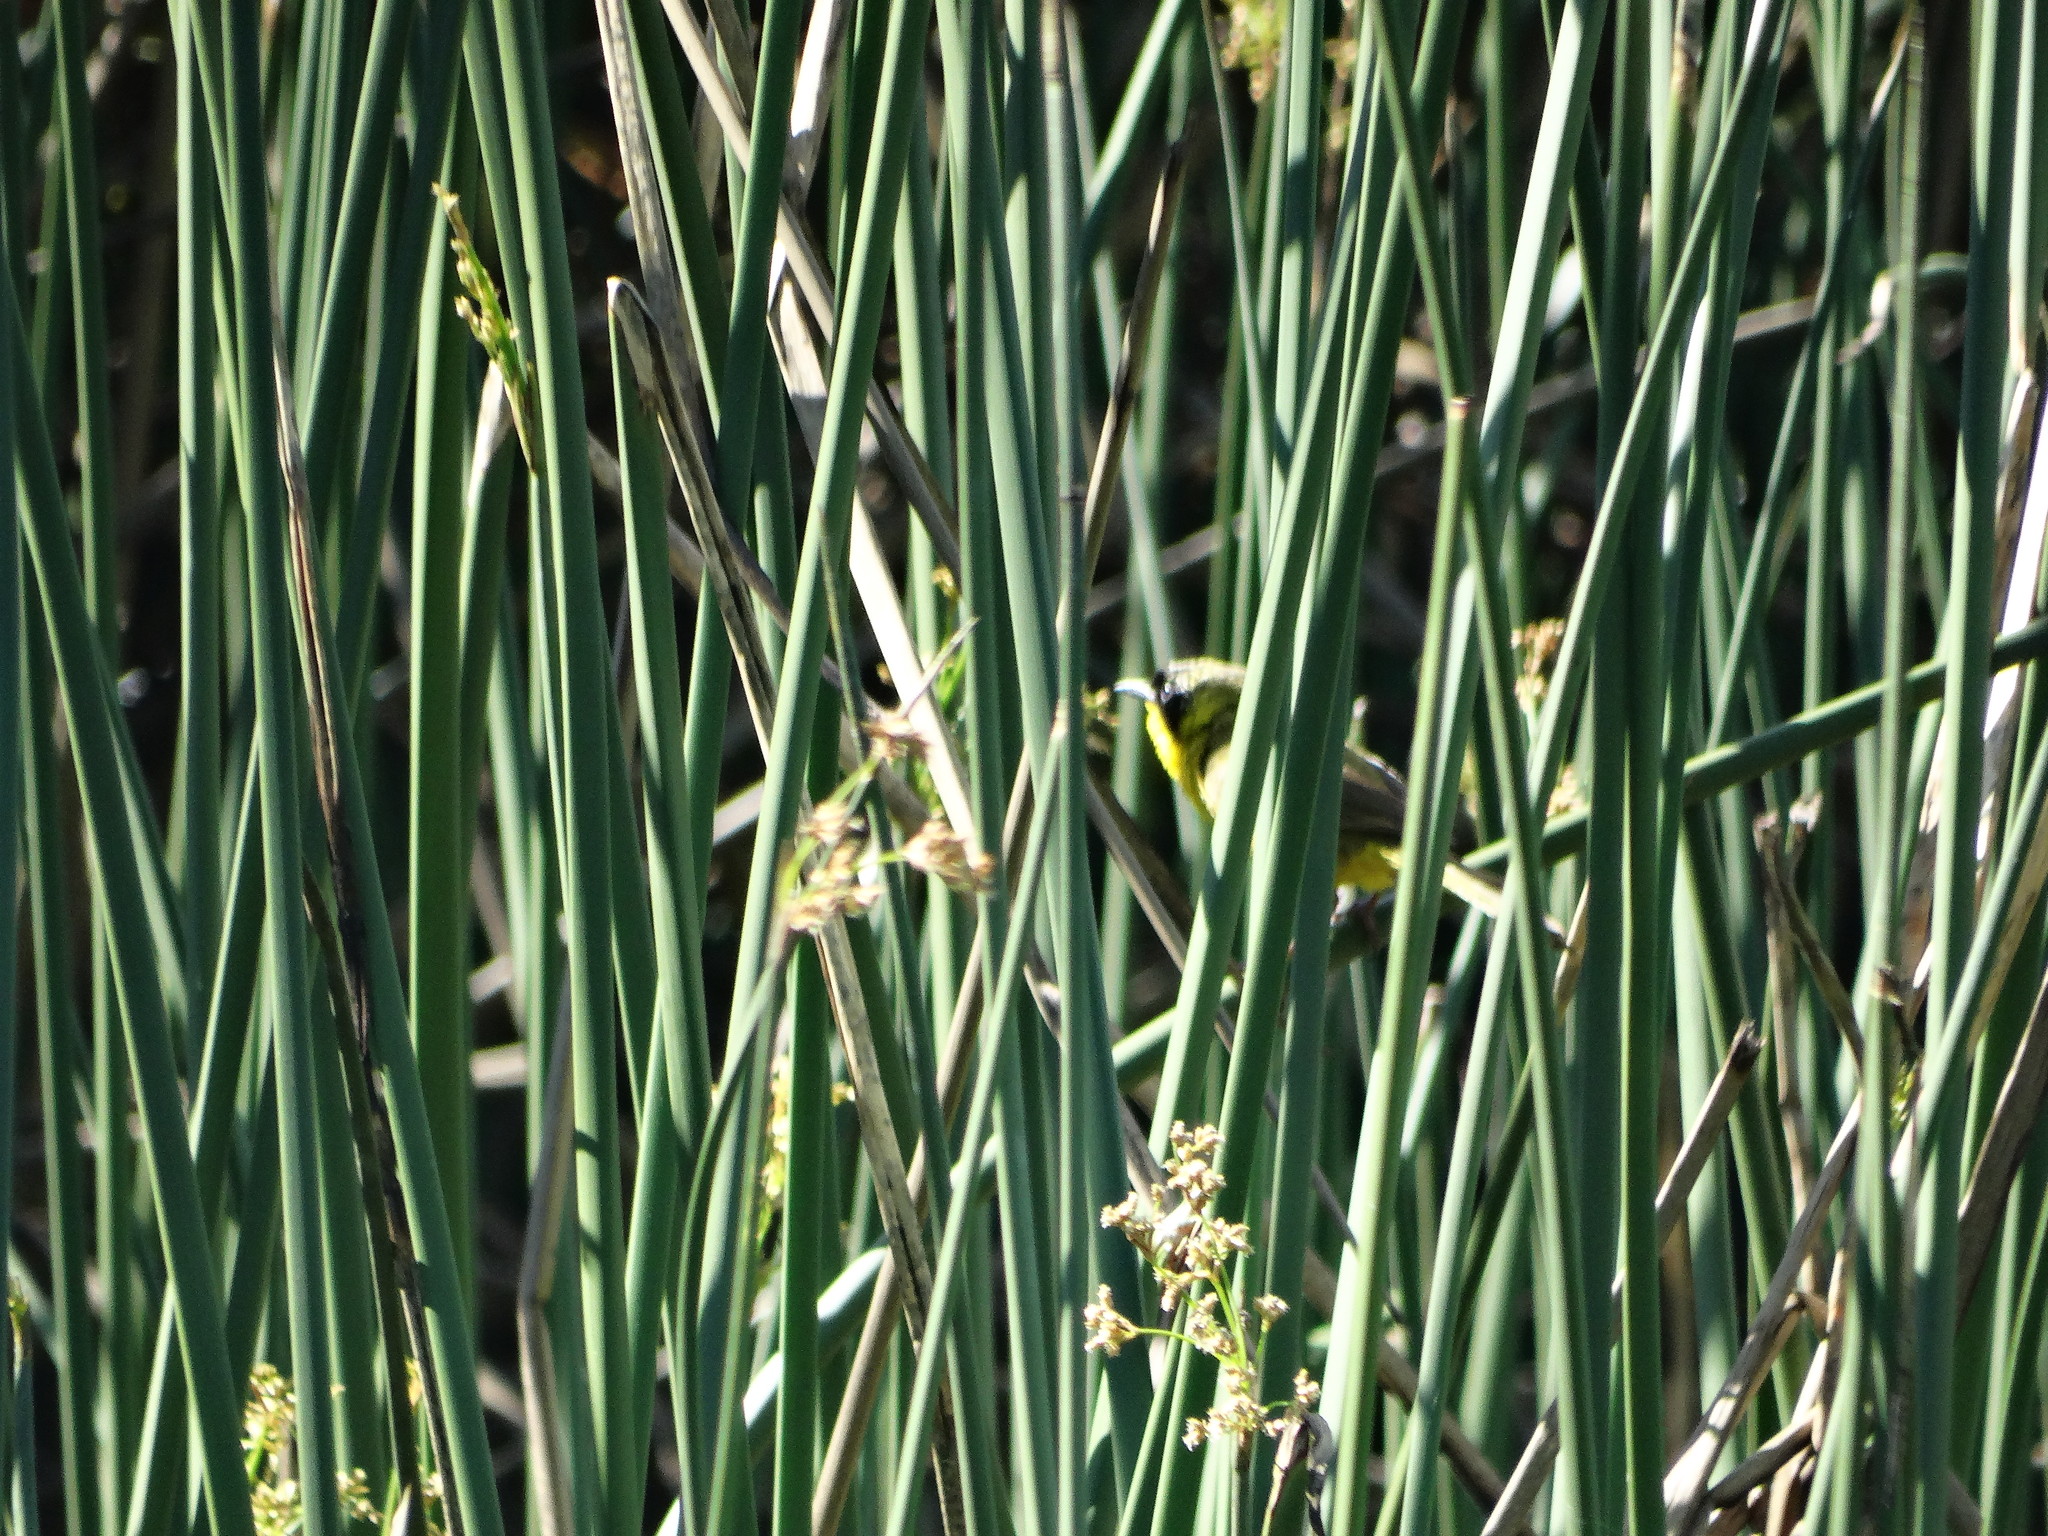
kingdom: Animalia
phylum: Chordata
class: Aves
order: Passeriformes
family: Parulidae
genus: Geothlypis
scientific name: Geothlypis trichas
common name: Common yellowthroat
